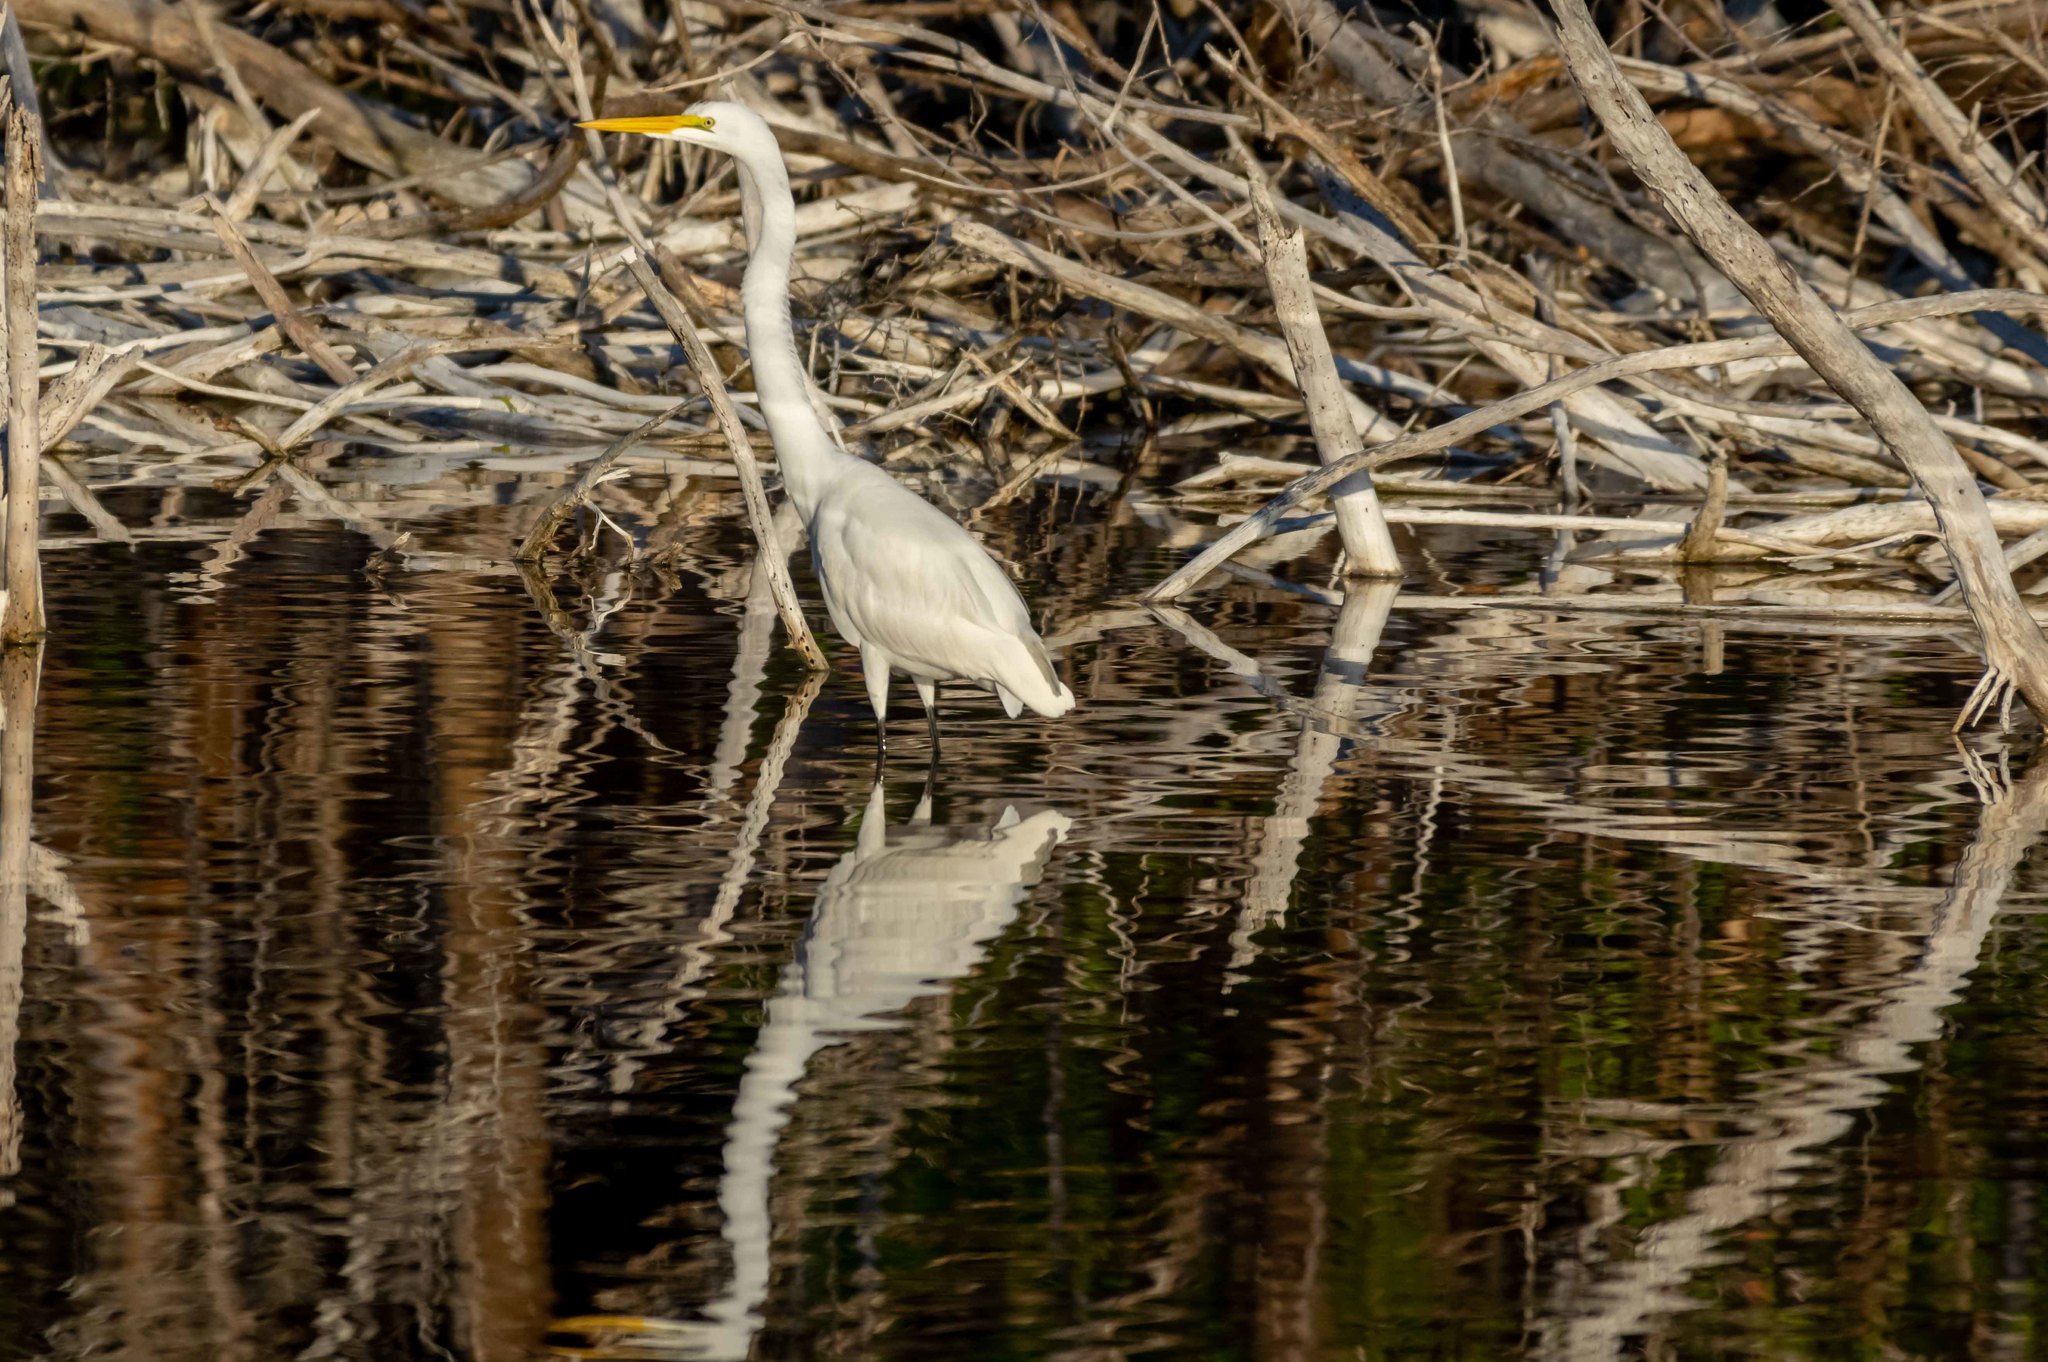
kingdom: Animalia
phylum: Chordata
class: Aves
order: Pelecaniformes
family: Ardeidae
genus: Ardea
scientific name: Ardea alba
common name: Great egret
